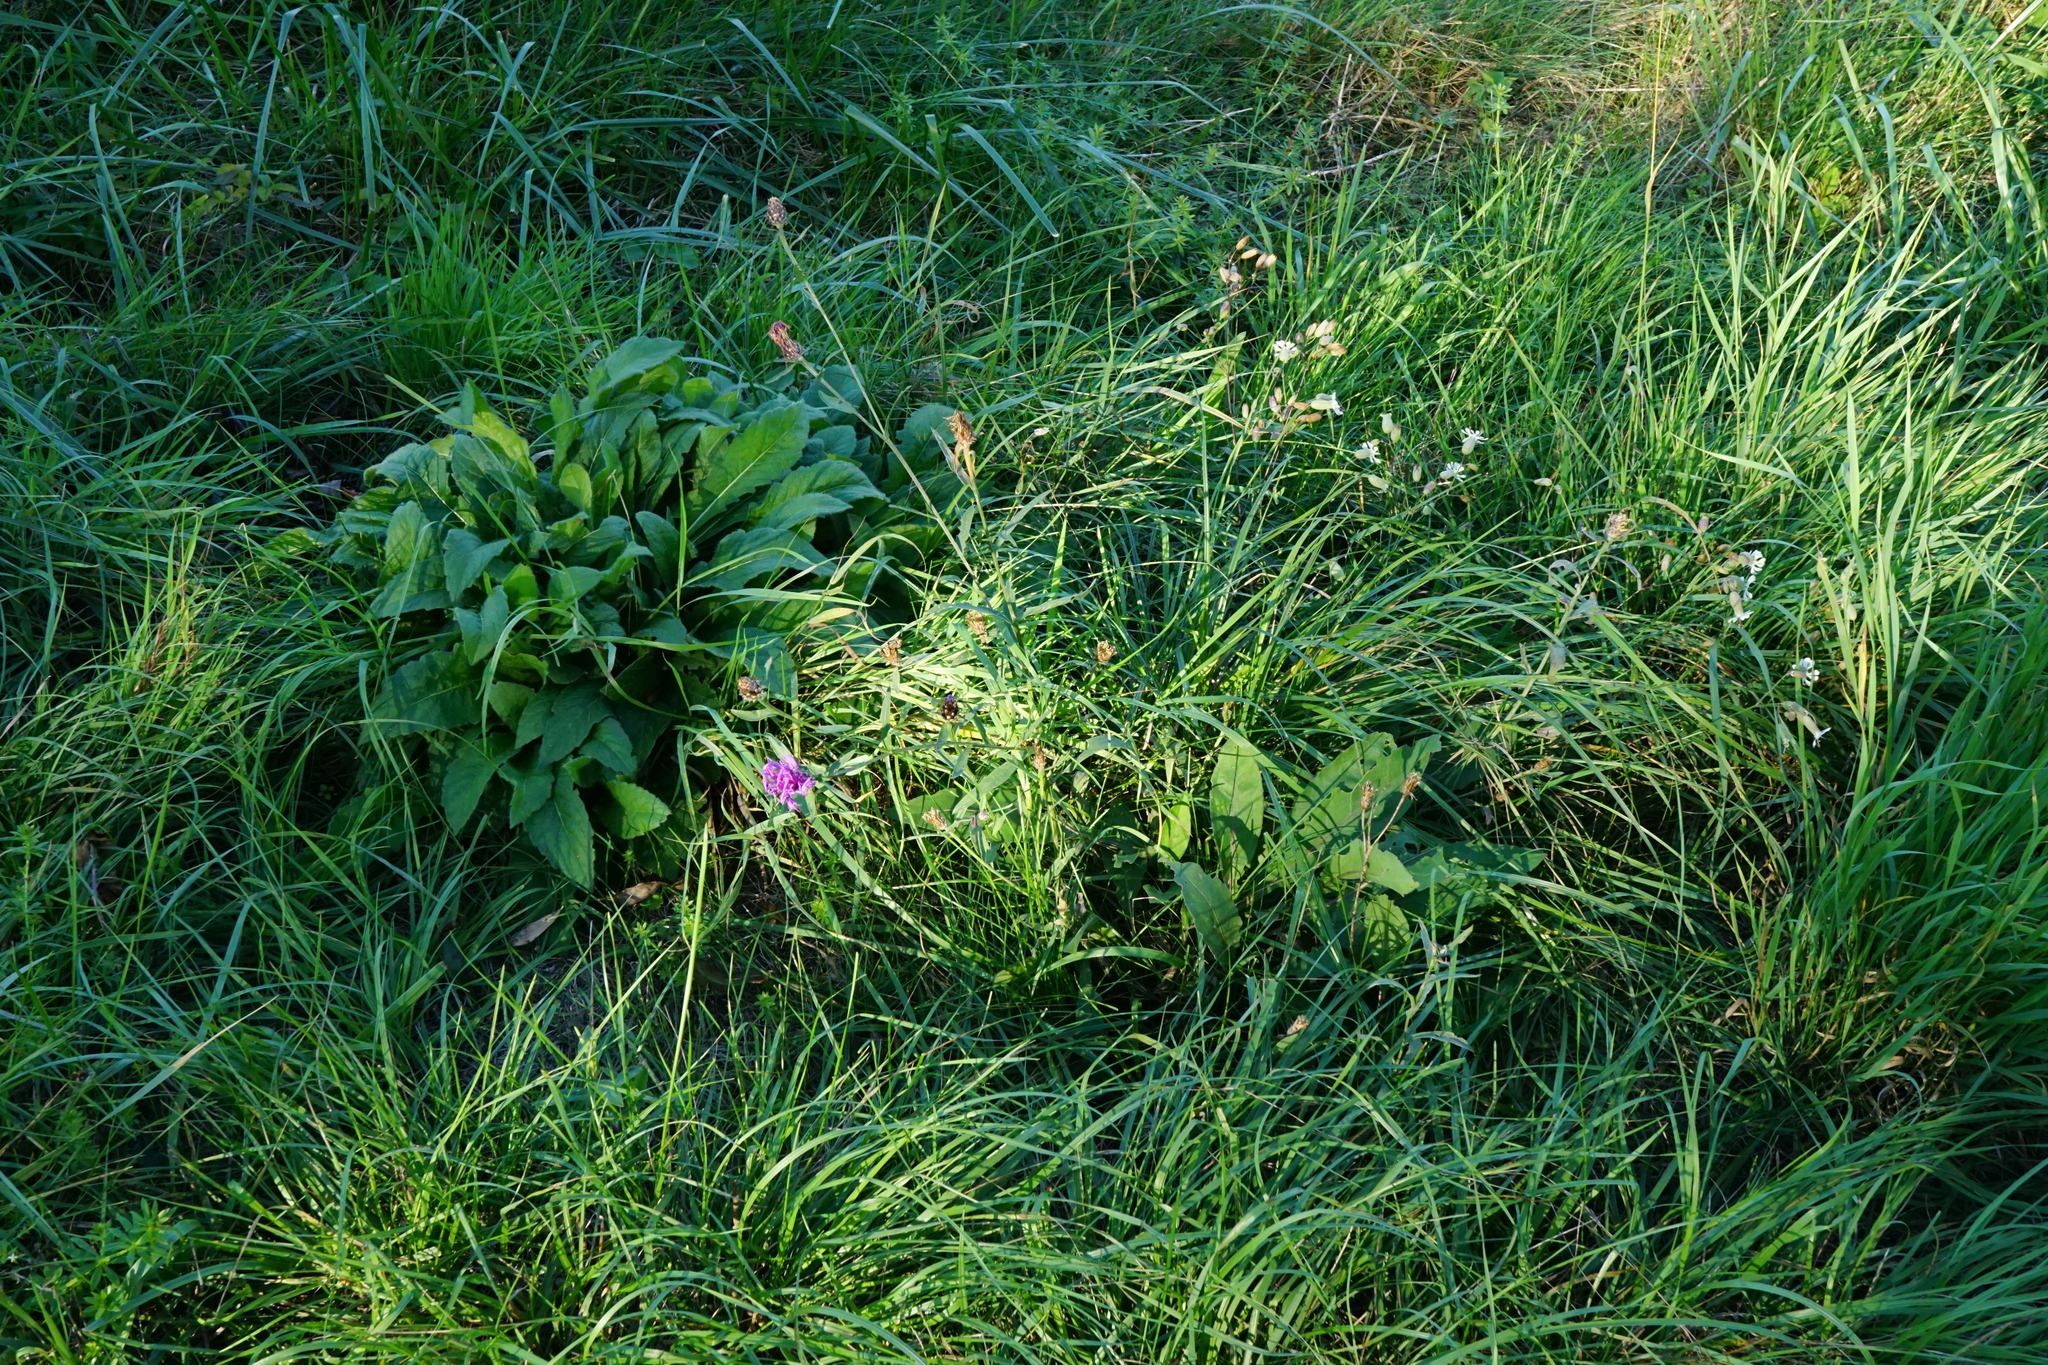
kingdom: Plantae
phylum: Tracheophyta
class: Magnoliopsida
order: Asterales
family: Asteraceae
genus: Centaurea
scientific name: Centaurea nigrescens
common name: Tyrol knapweed
